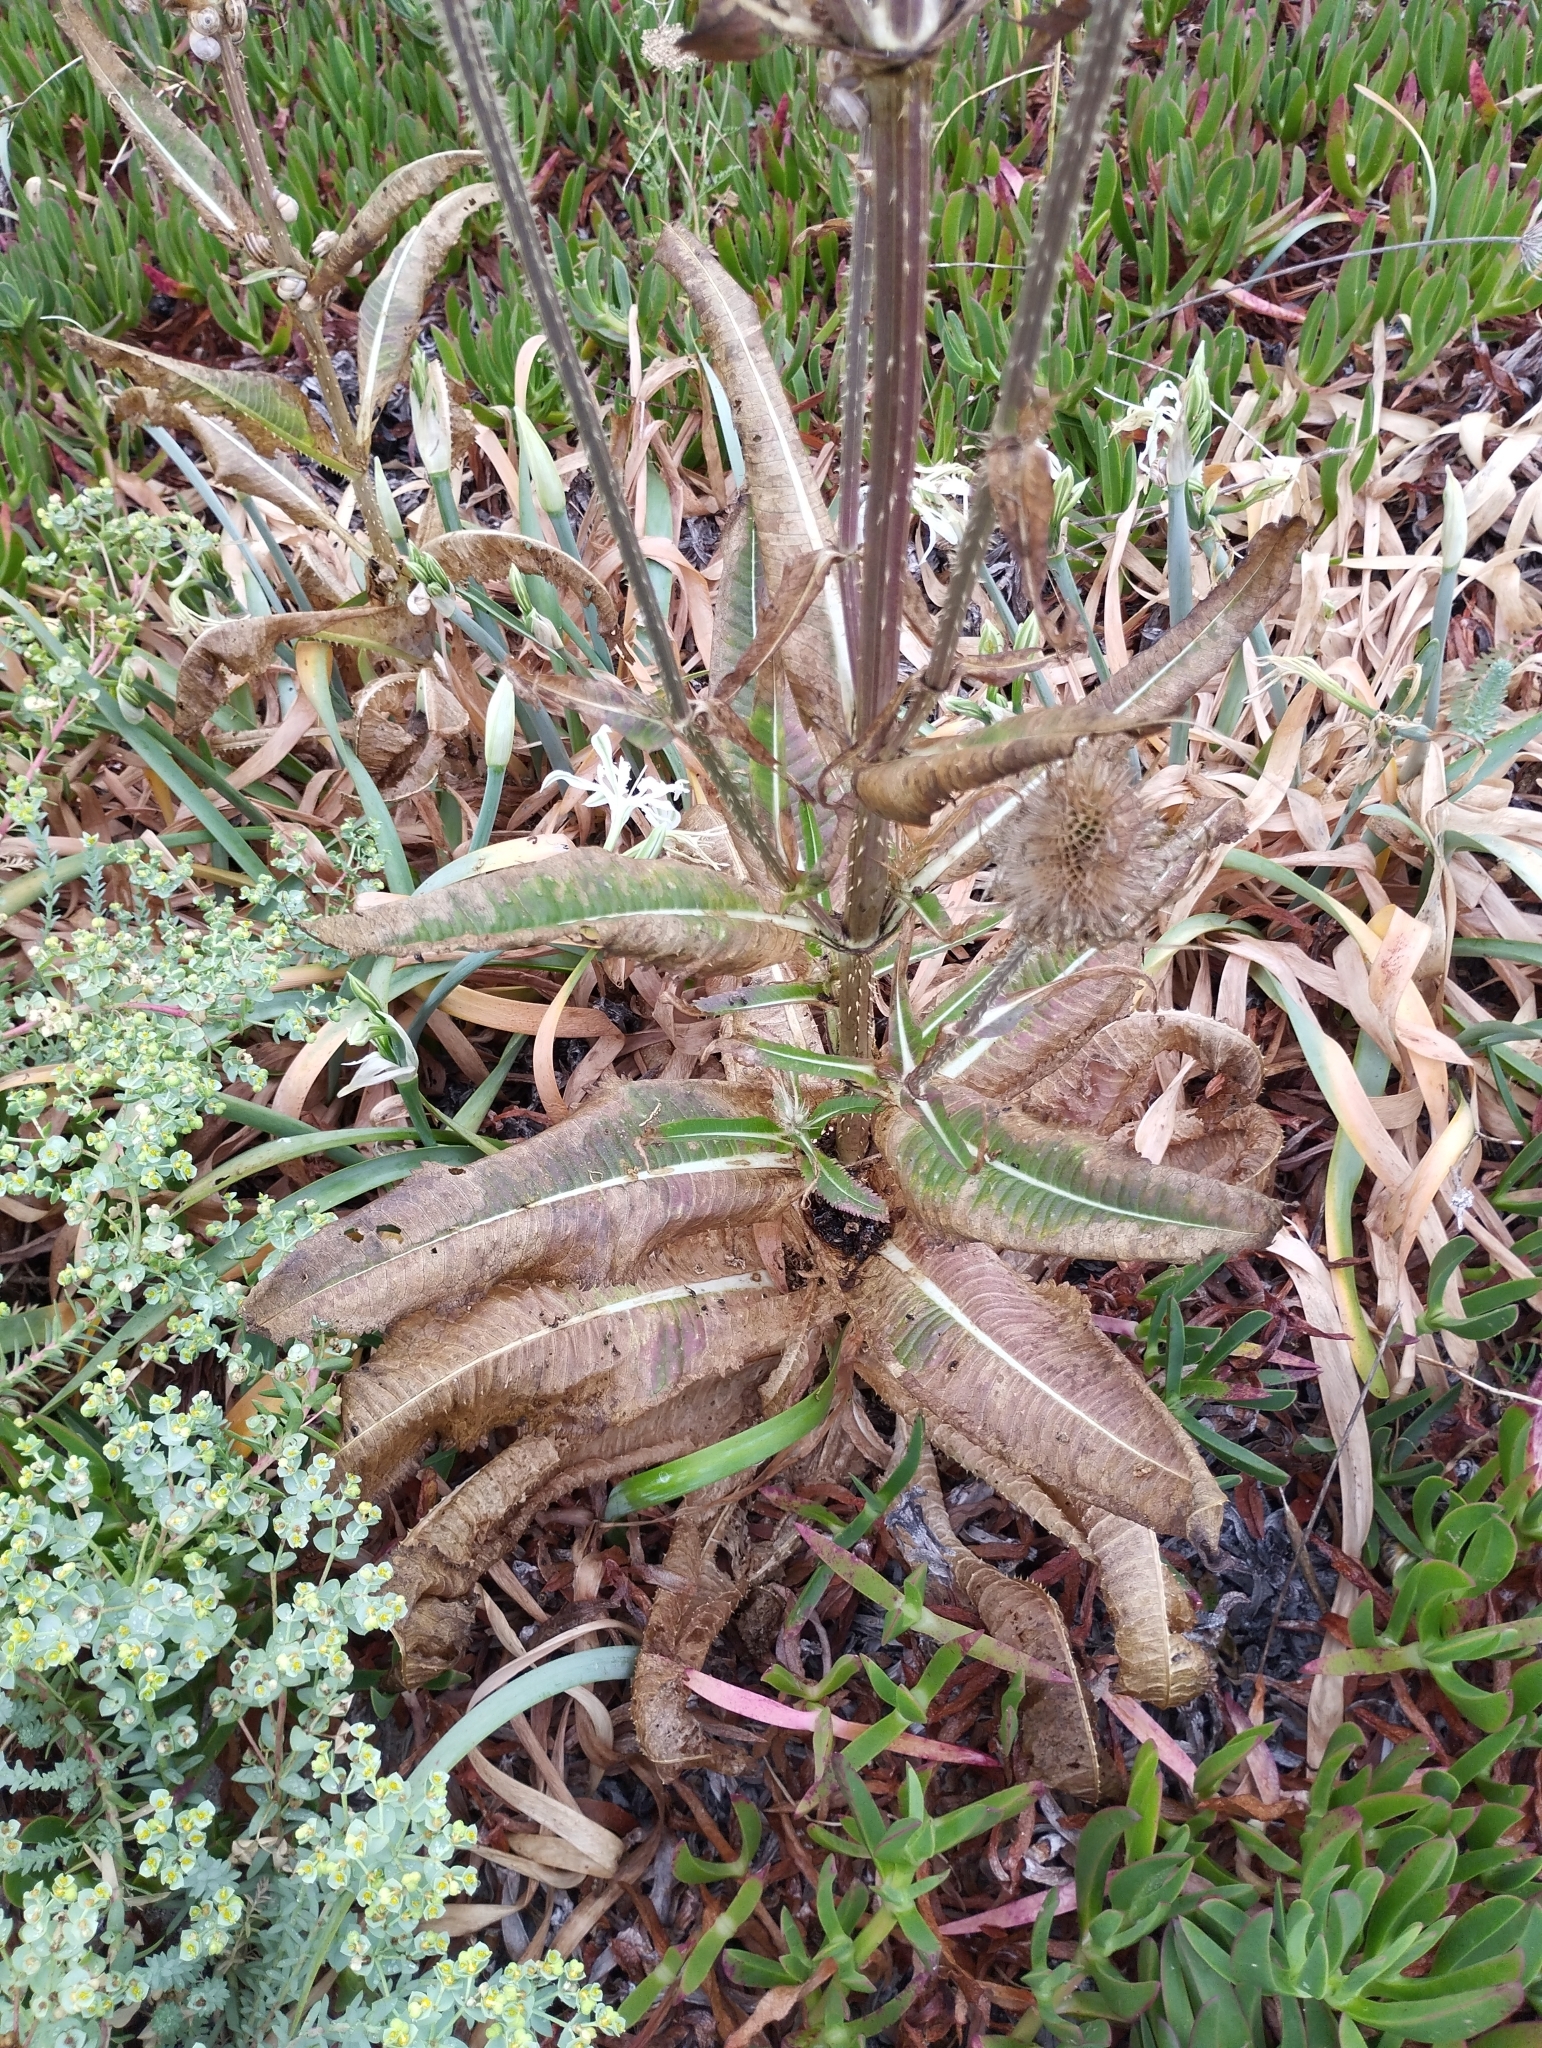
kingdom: Plantae
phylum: Tracheophyta
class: Magnoliopsida
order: Dipsacales
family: Caprifoliaceae
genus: Dipsacus
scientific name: Dipsacus fullonum
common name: Teasel
